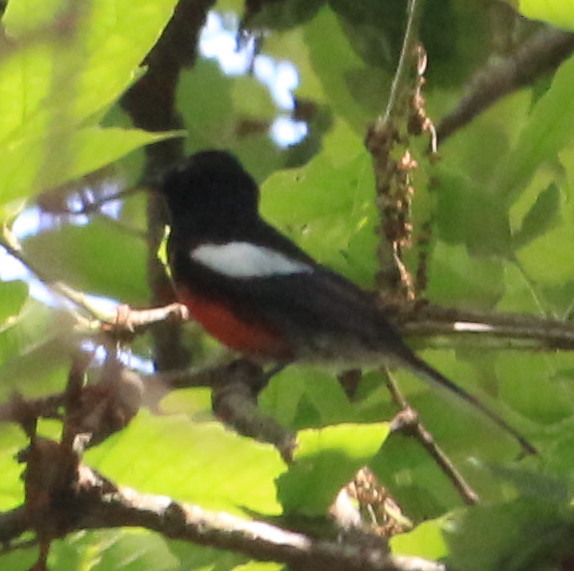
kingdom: Animalia
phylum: Chordata
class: Aves
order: Passeriformes
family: Parulidae
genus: Myioborus
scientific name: Myioborus pictus
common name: Painted whitestart
